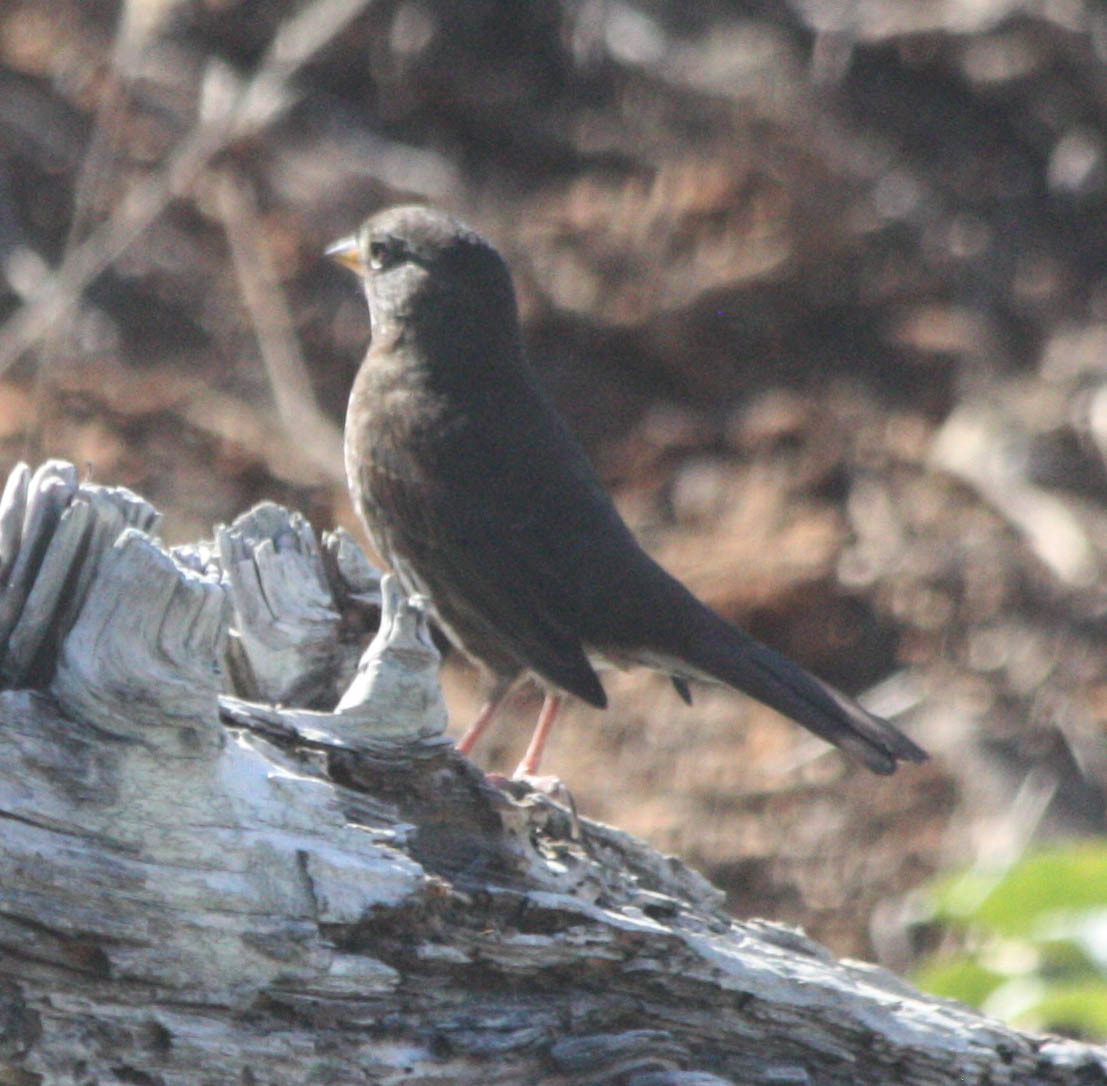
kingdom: Animalia
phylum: Chordata
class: Aves
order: Passeriformes
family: Passerellidae
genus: Passerella
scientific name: Passerella iliaca
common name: Fox sparrow
